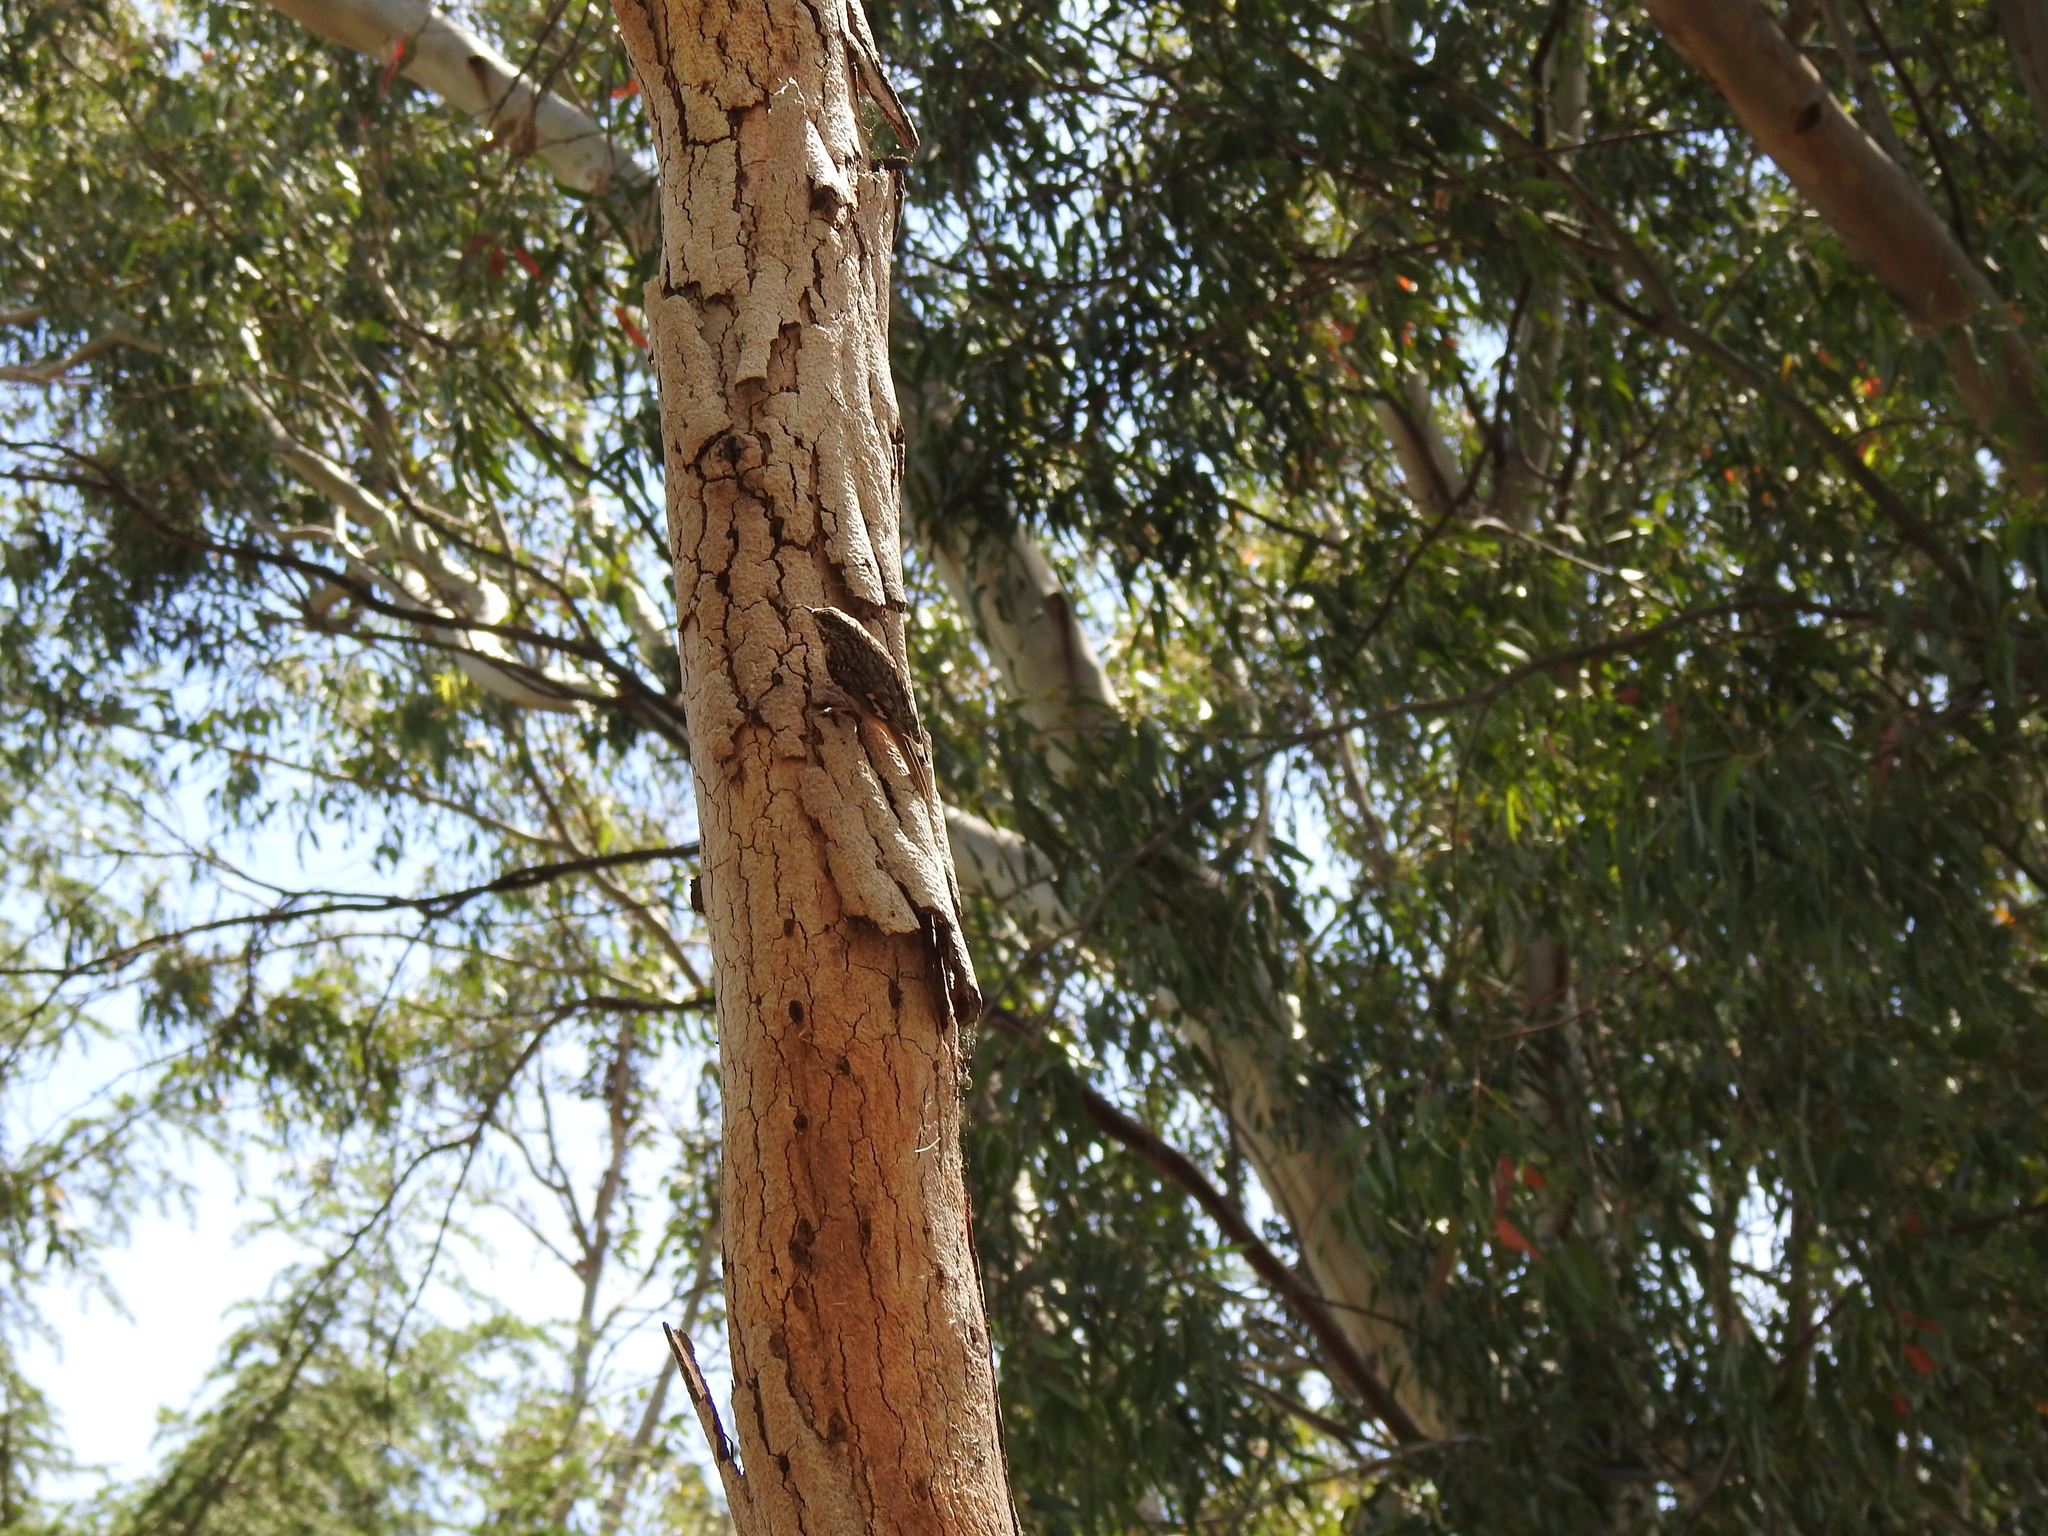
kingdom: Animalia
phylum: Chordata
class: Aves
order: Passeriformes
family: Certhiidae
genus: Certhia
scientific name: Certhia americana
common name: Brown creeper
